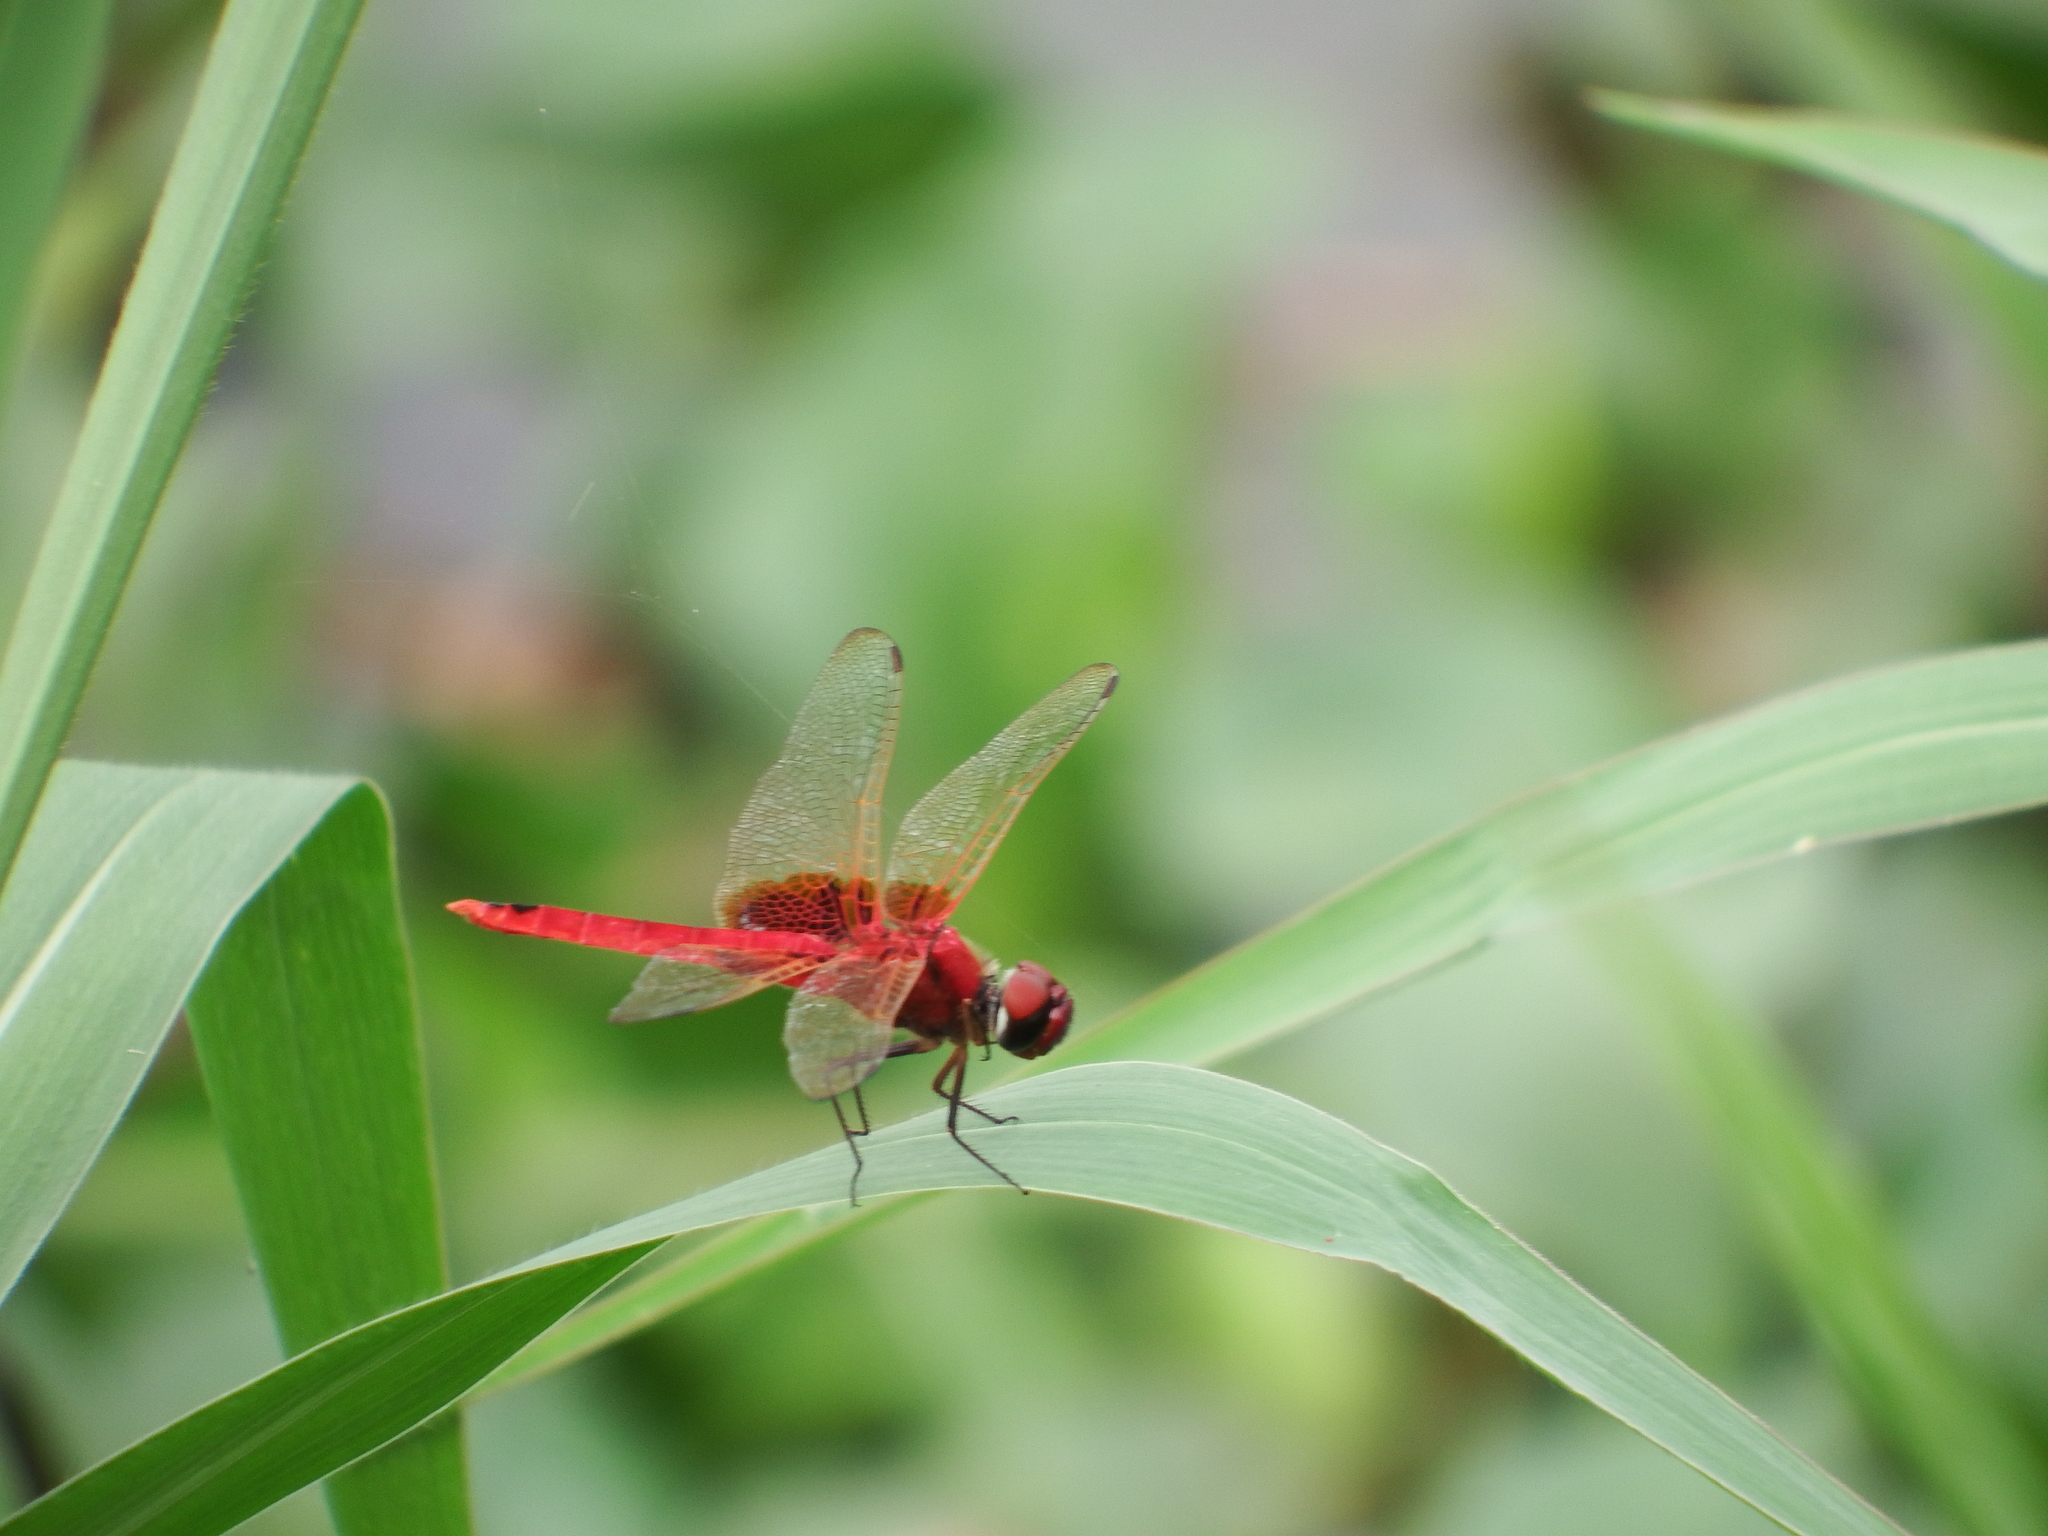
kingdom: Animalia
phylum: Arthropoda
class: Insecta
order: Odonata
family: Libellulidae
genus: Urothemis
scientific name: Urothemis signata
